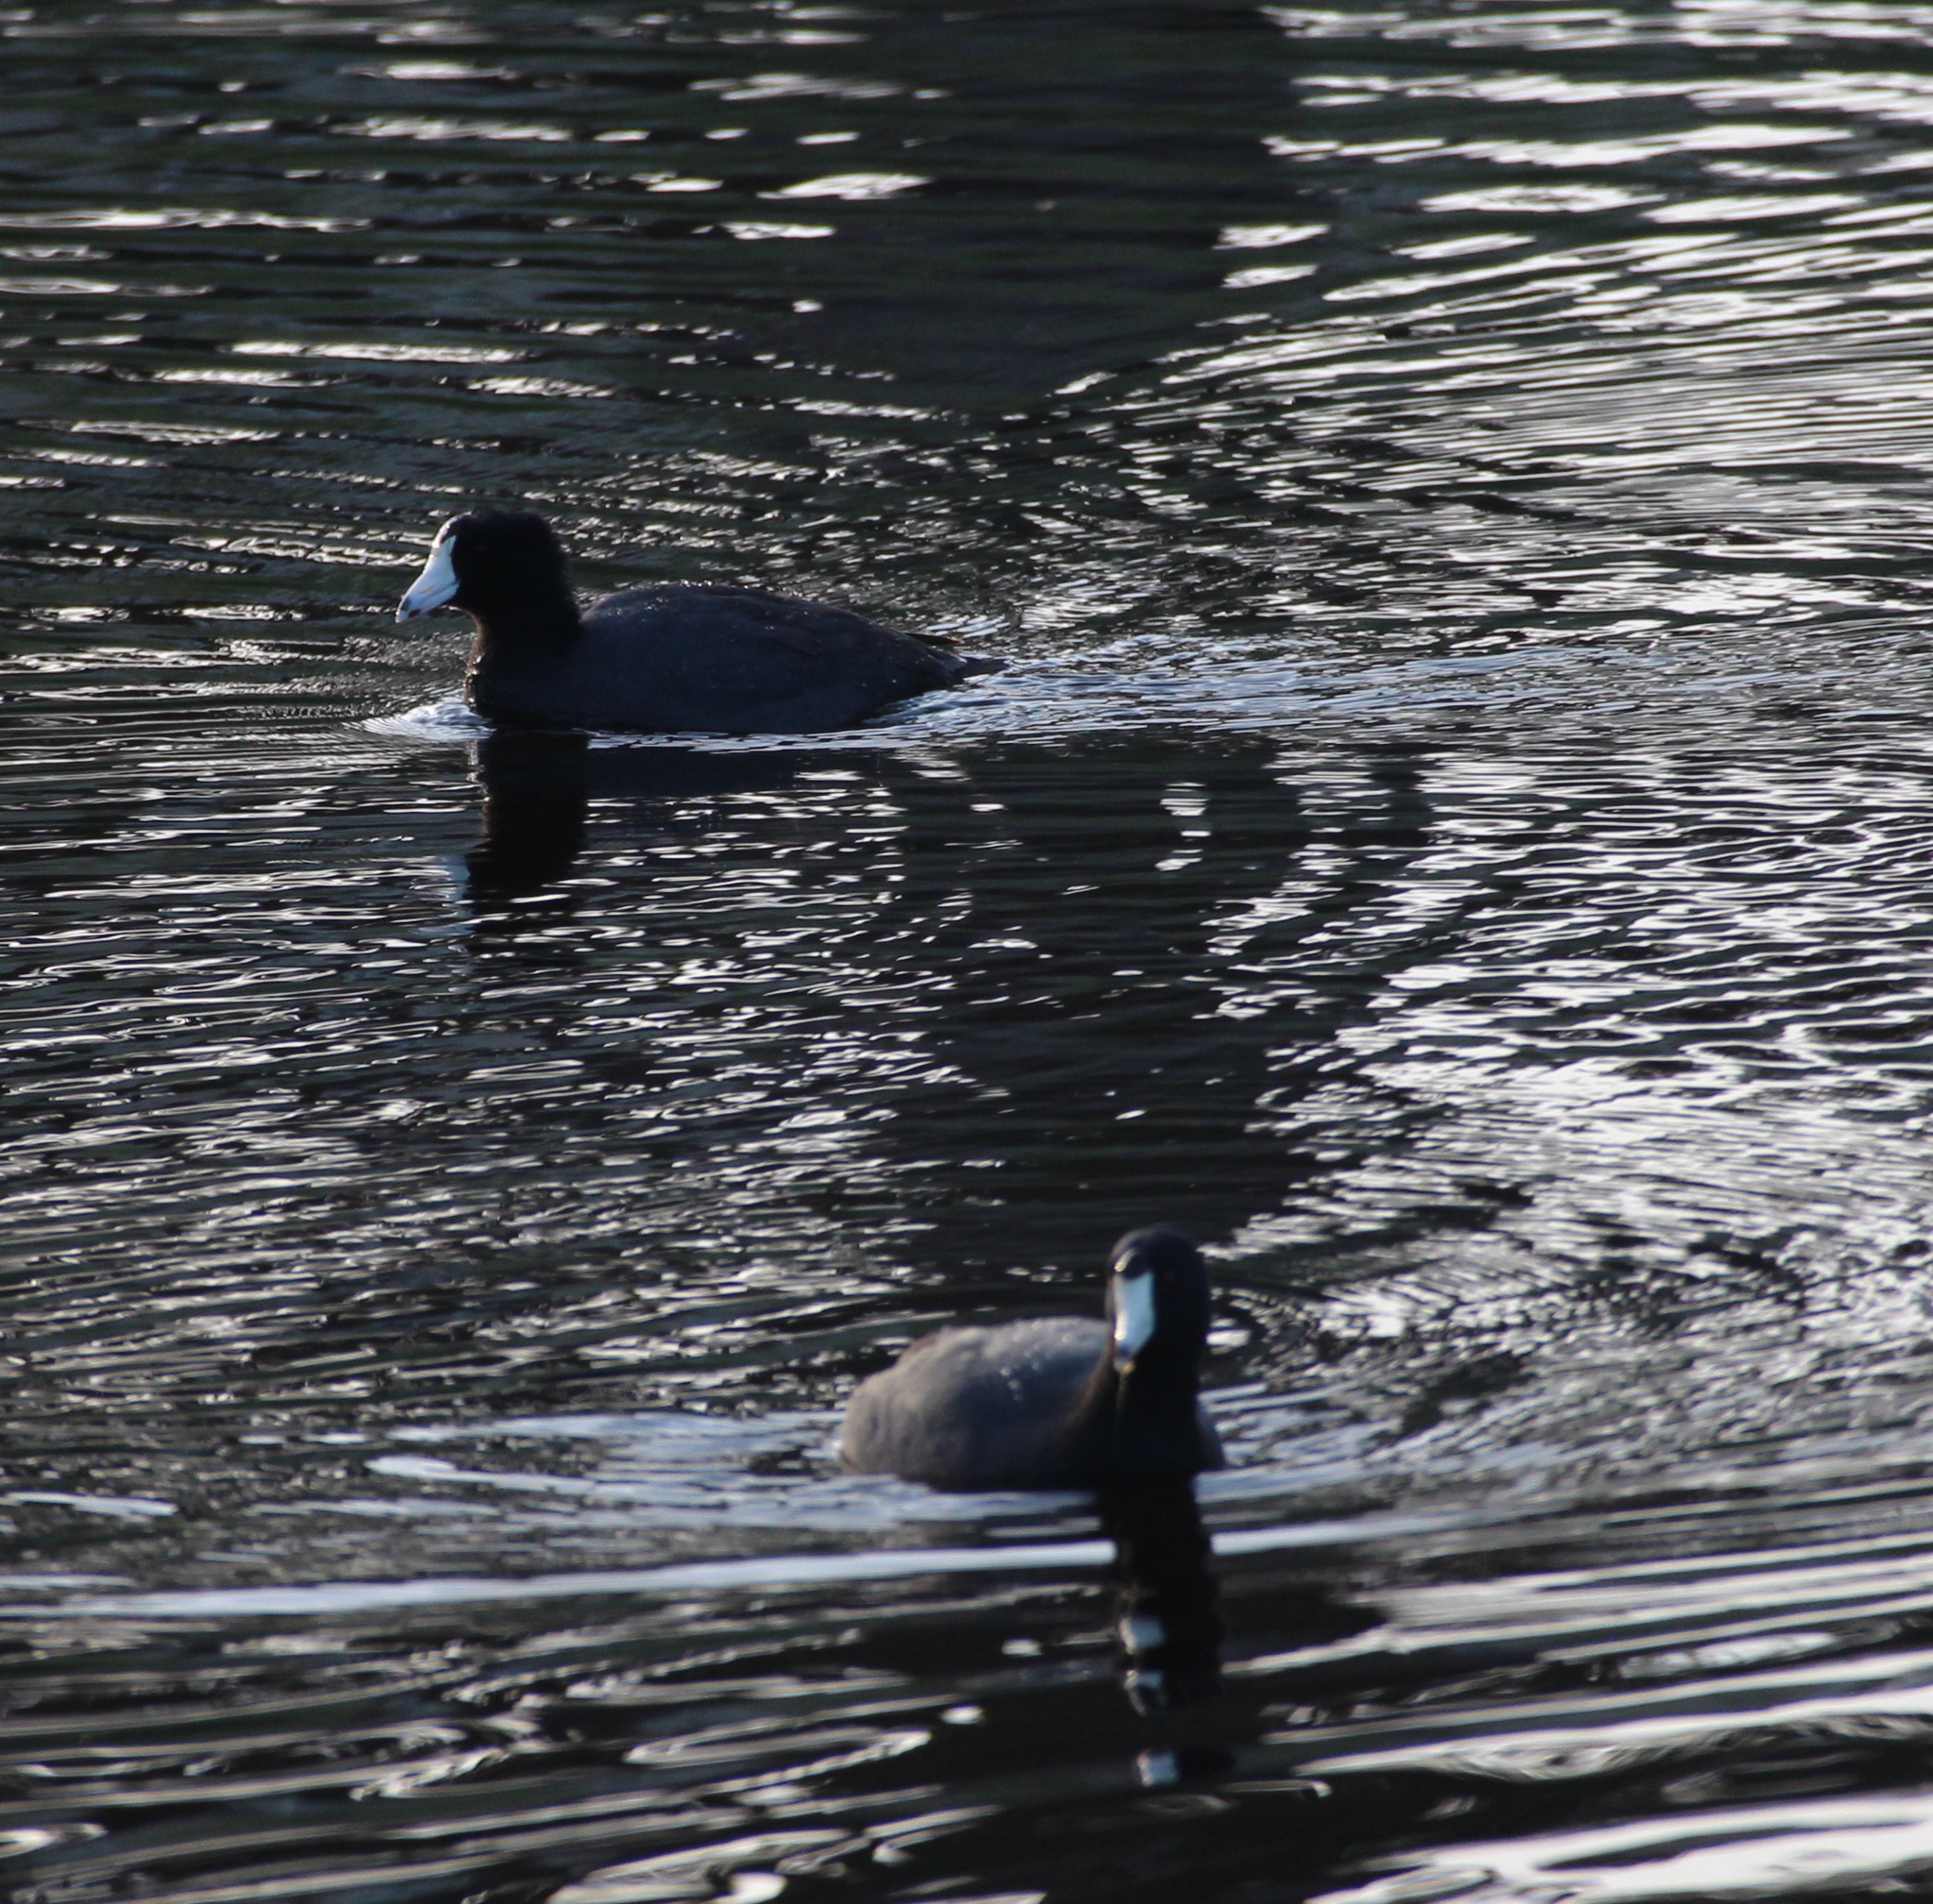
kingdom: Animalia
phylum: Chordata
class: Aves
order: Gruiformes
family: Rallidae
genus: Fulica
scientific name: Fulica americana
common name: American coot
